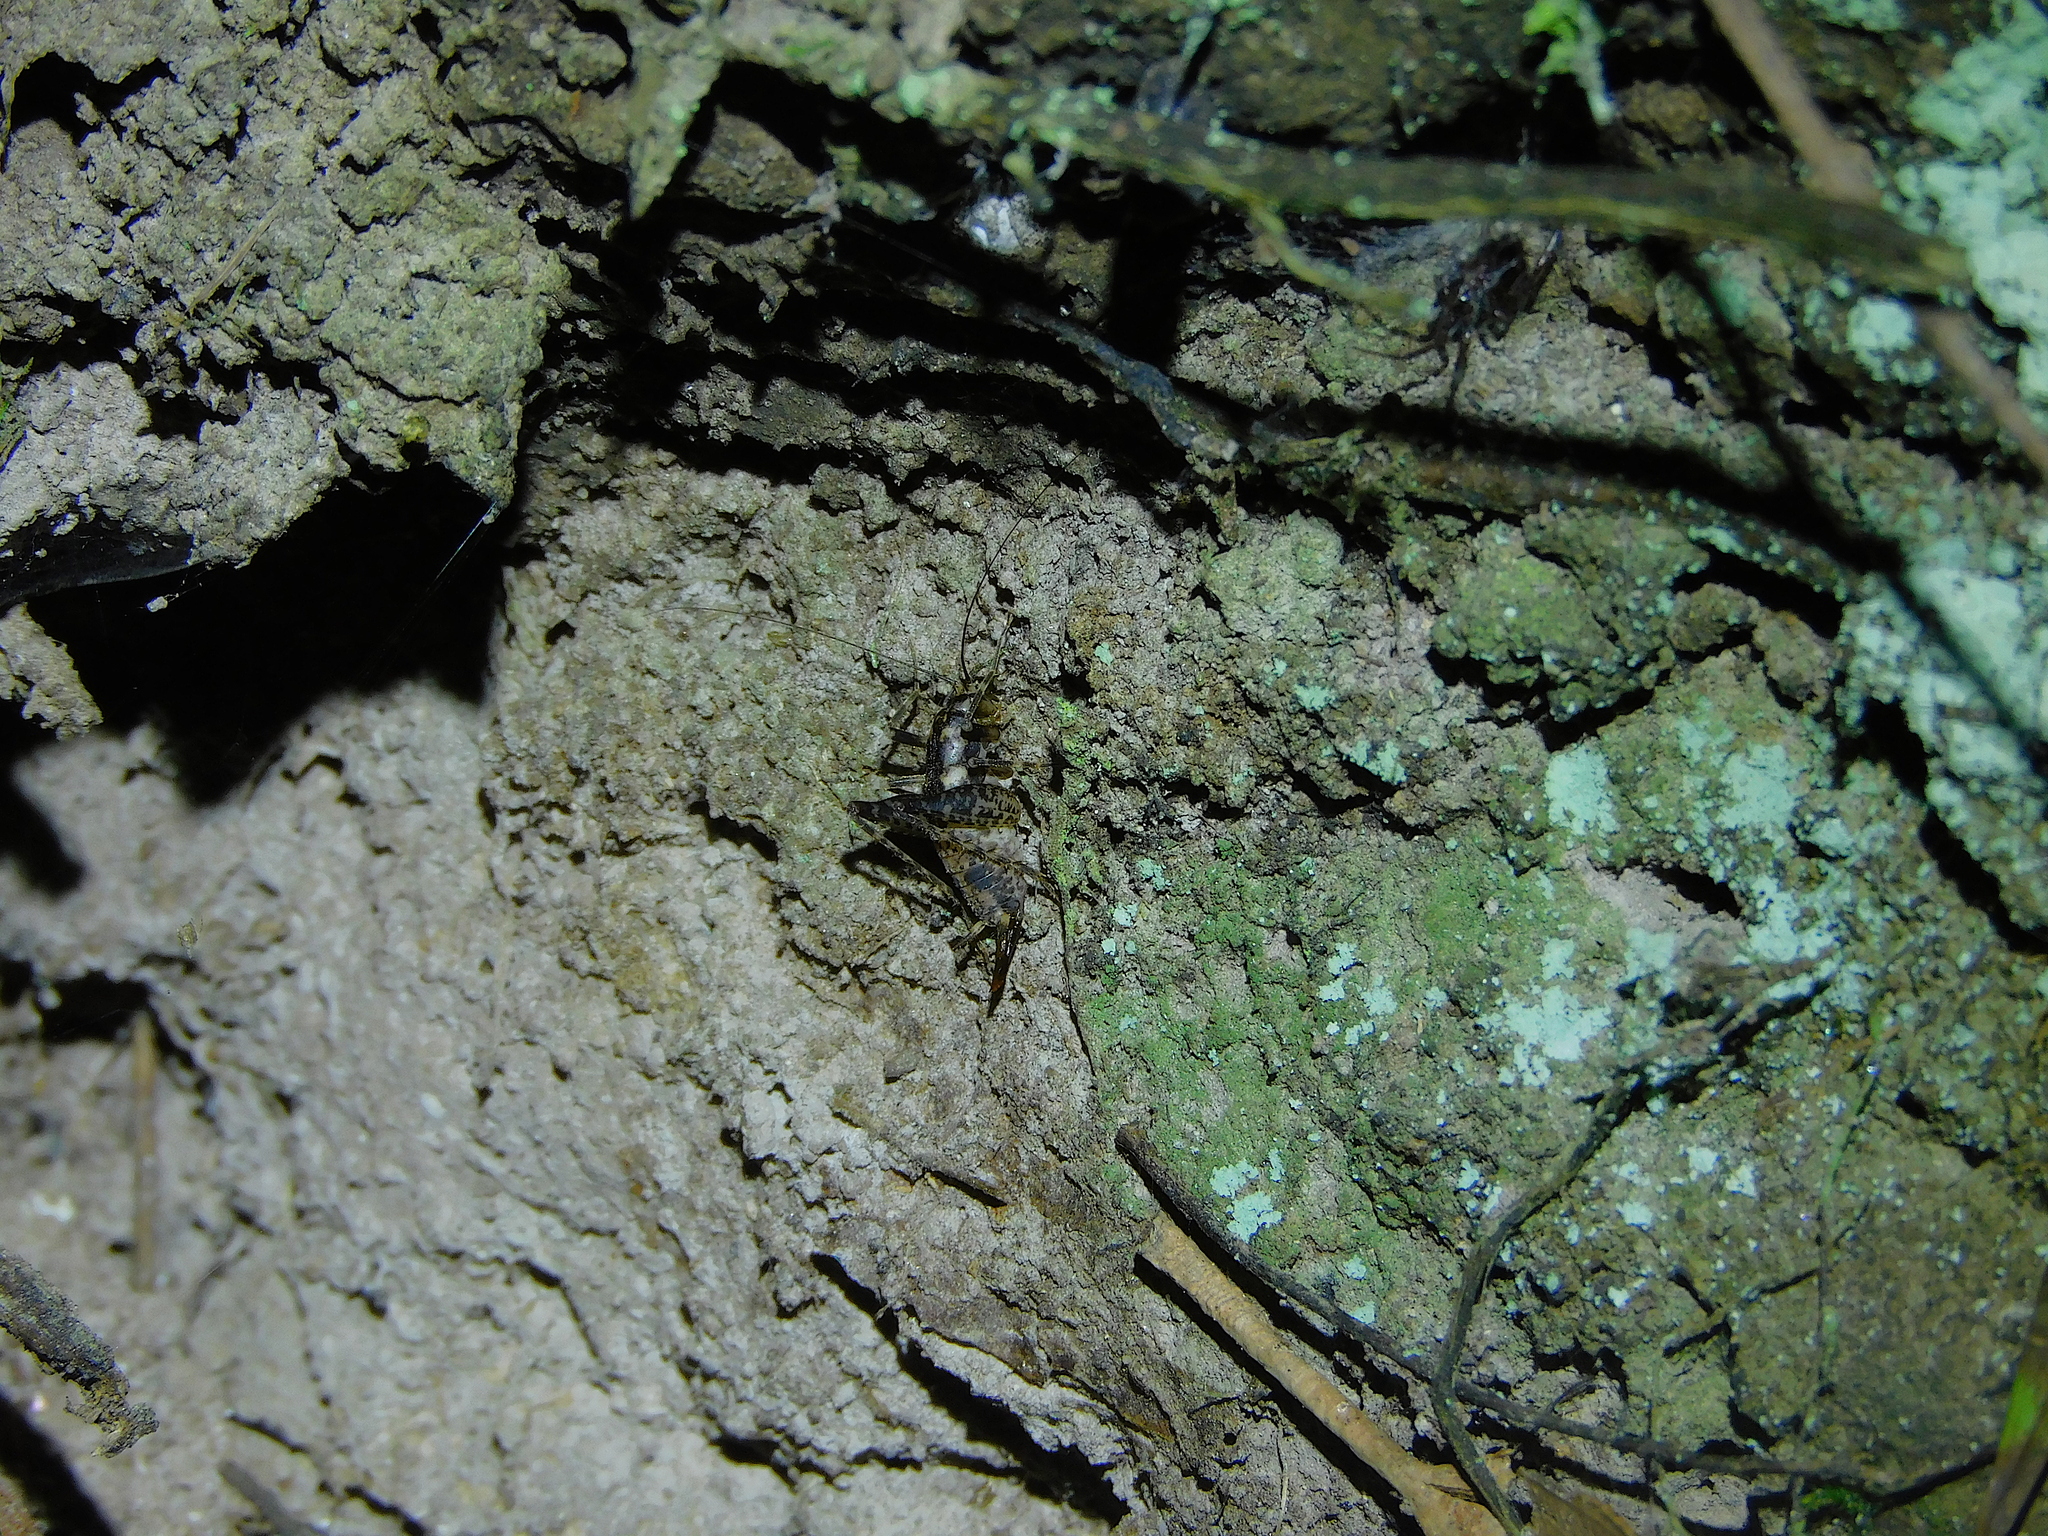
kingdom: Animalia
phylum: Arthropoda
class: Insecta
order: Orthoptera
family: Rhaphidophoridae
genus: Parvotettix
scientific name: Parvotettix domesticus
